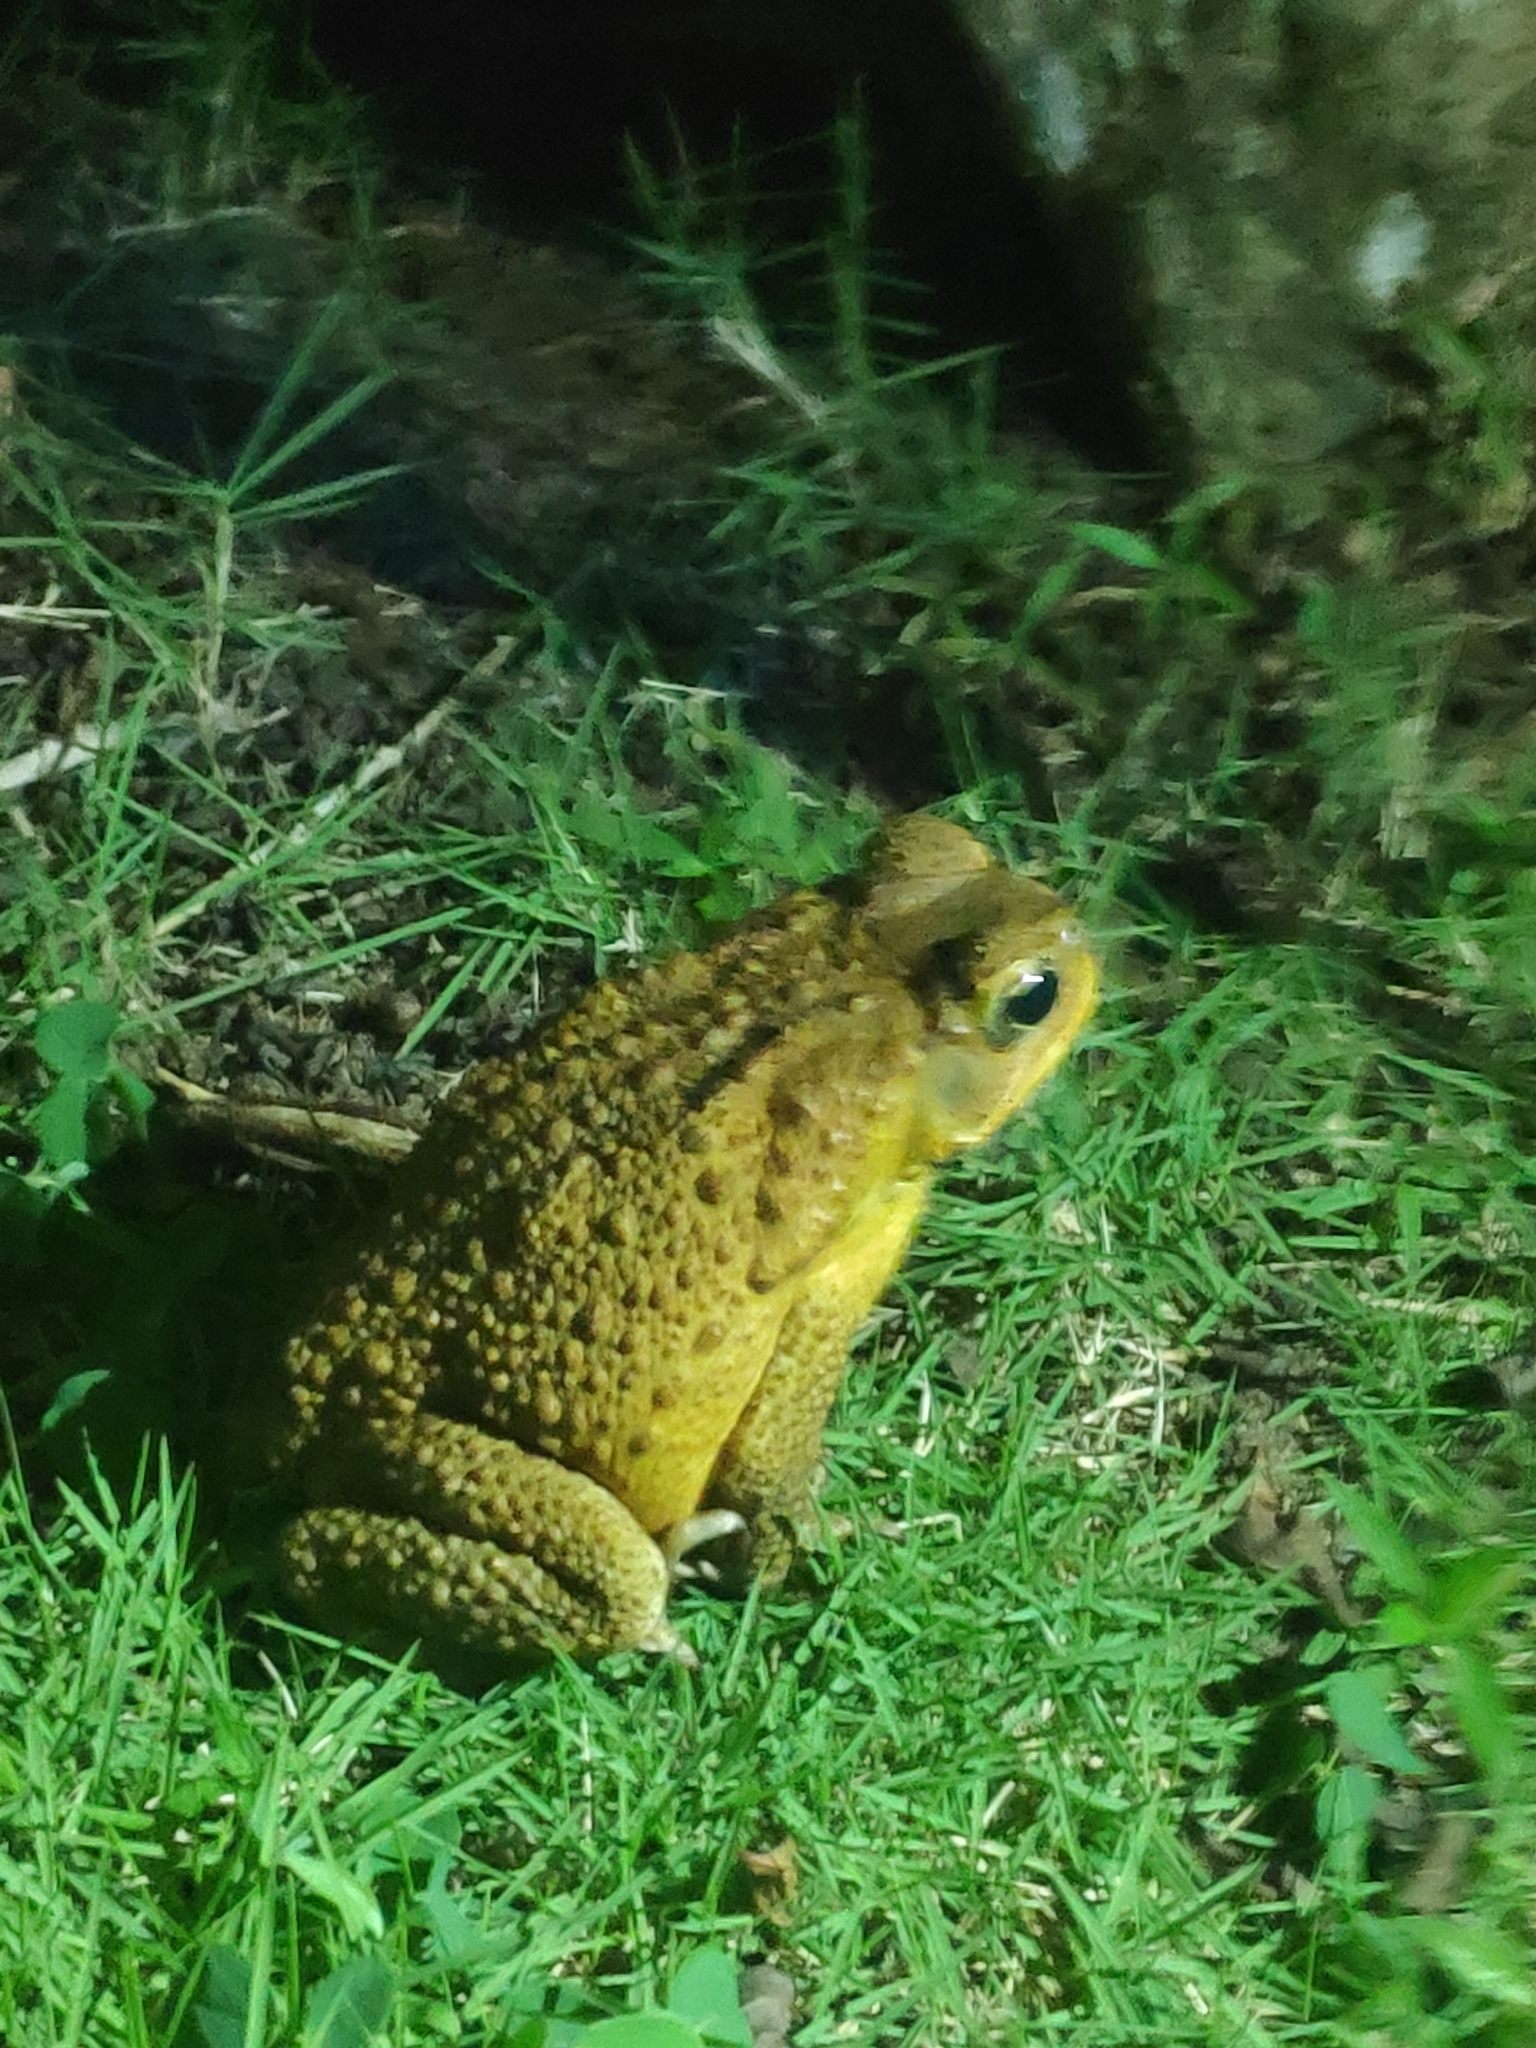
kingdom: Animalia
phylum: Chordata
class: Amphibia
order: Anura
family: Bufonidae
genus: Rhinella
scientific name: Rhinella marina
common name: Cane toad
